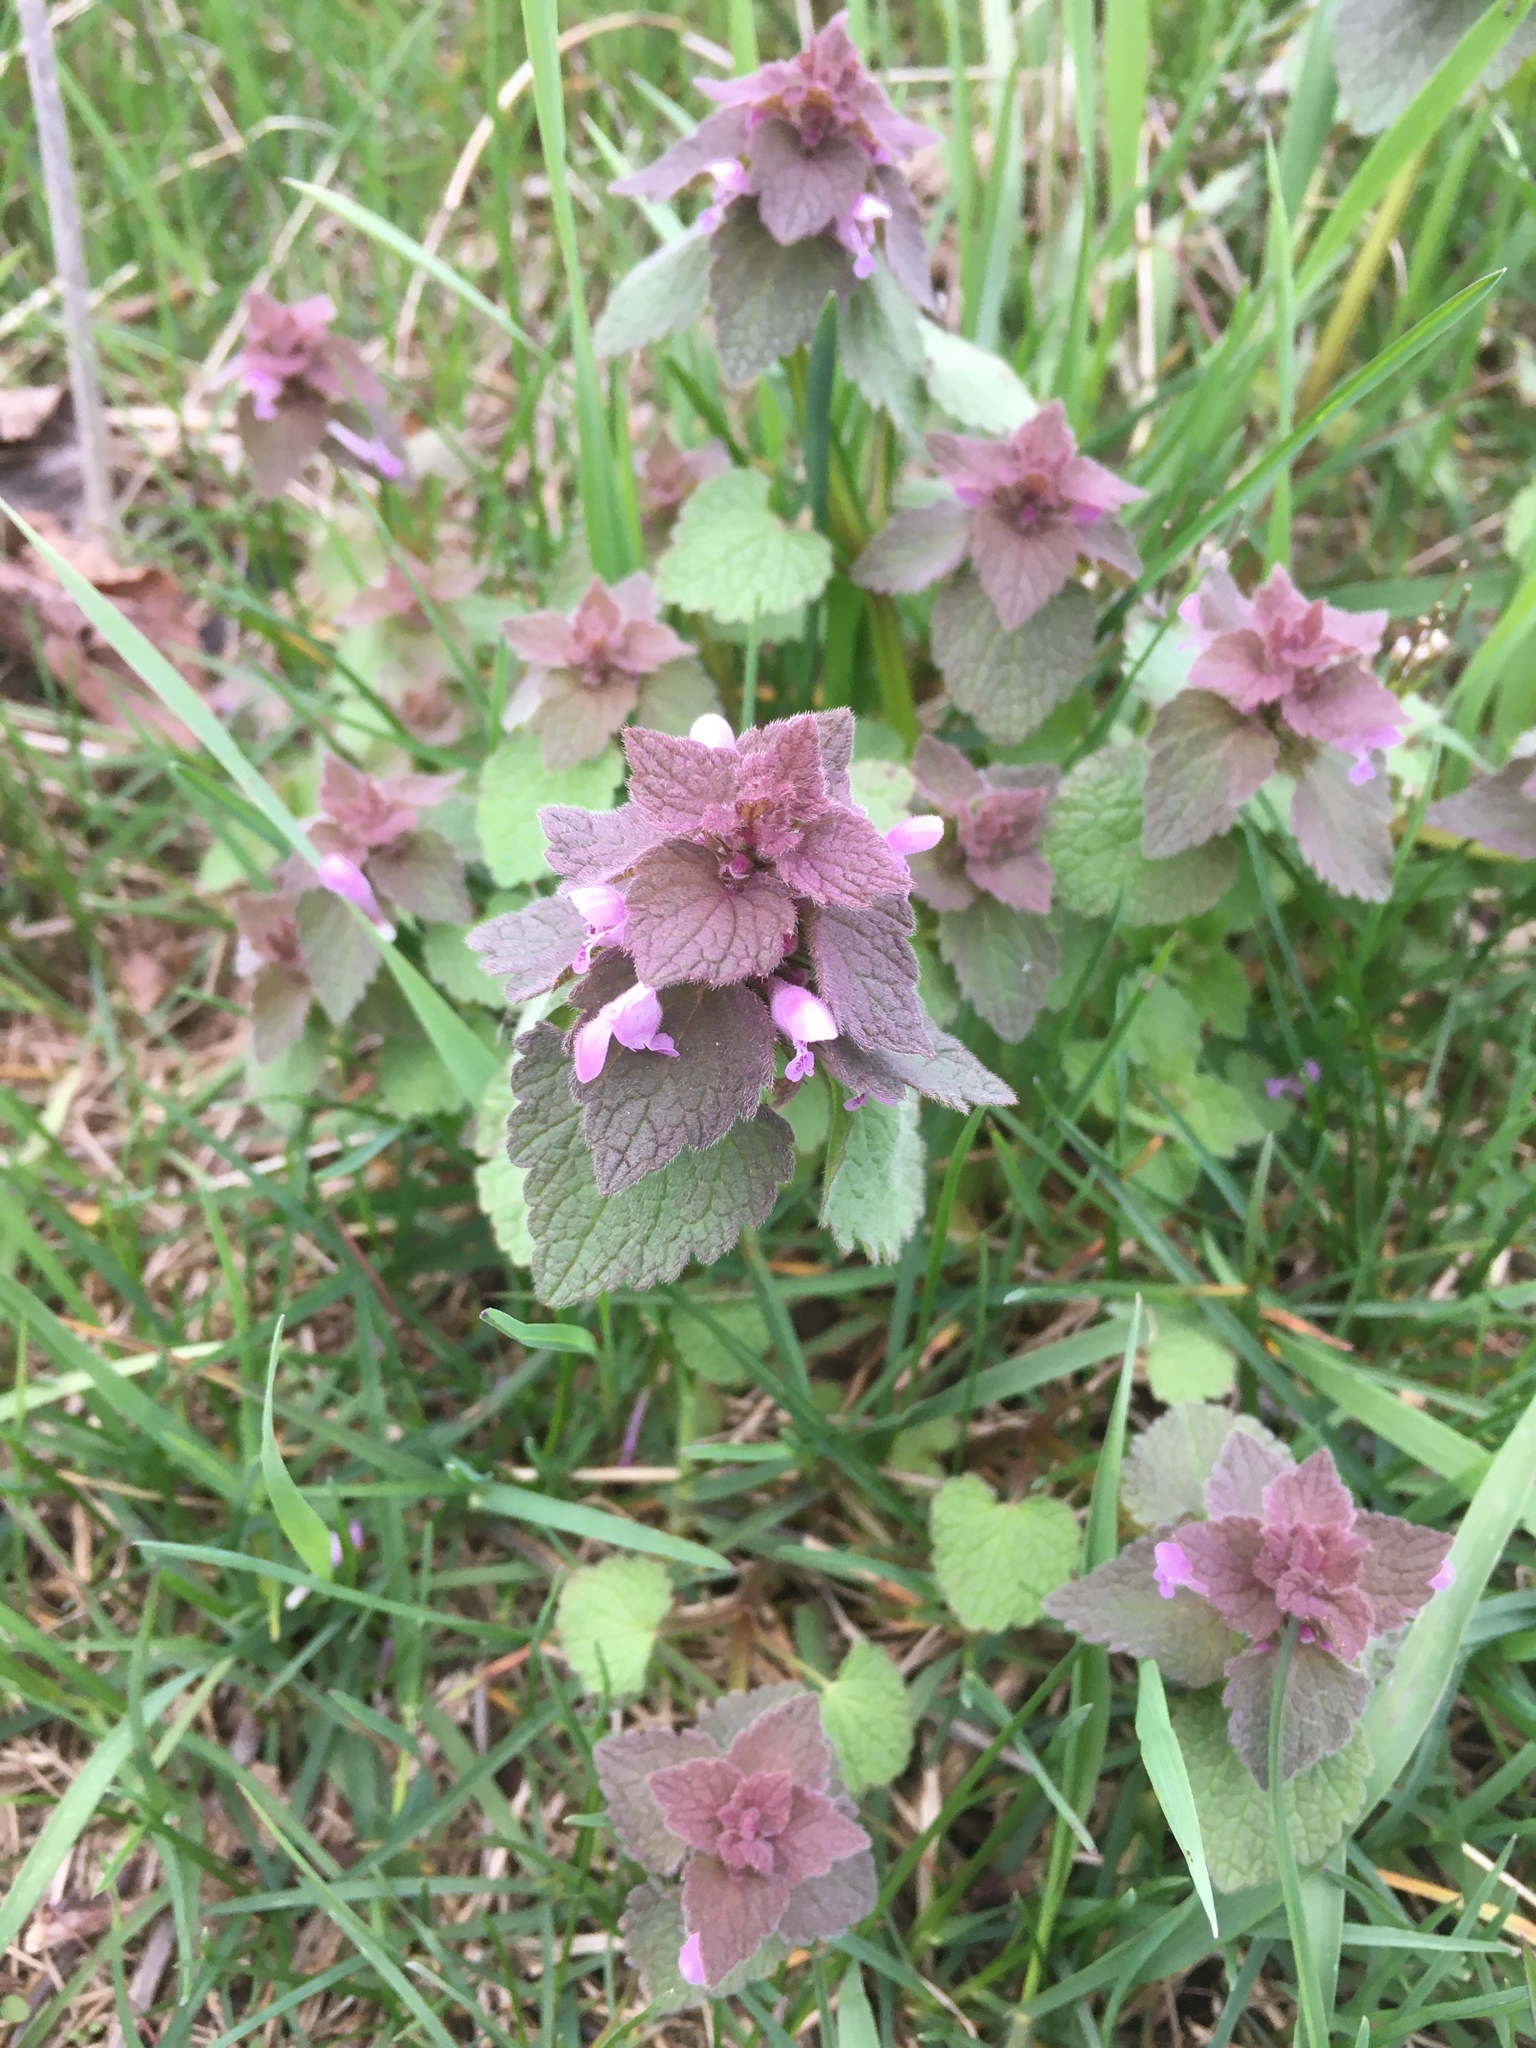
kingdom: Plantae
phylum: Tracheophyta
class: Magnoliopsida
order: Lamiales
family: Lamiaceae
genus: Lamium
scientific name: Lamium purpureum
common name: Red dead-nettle
